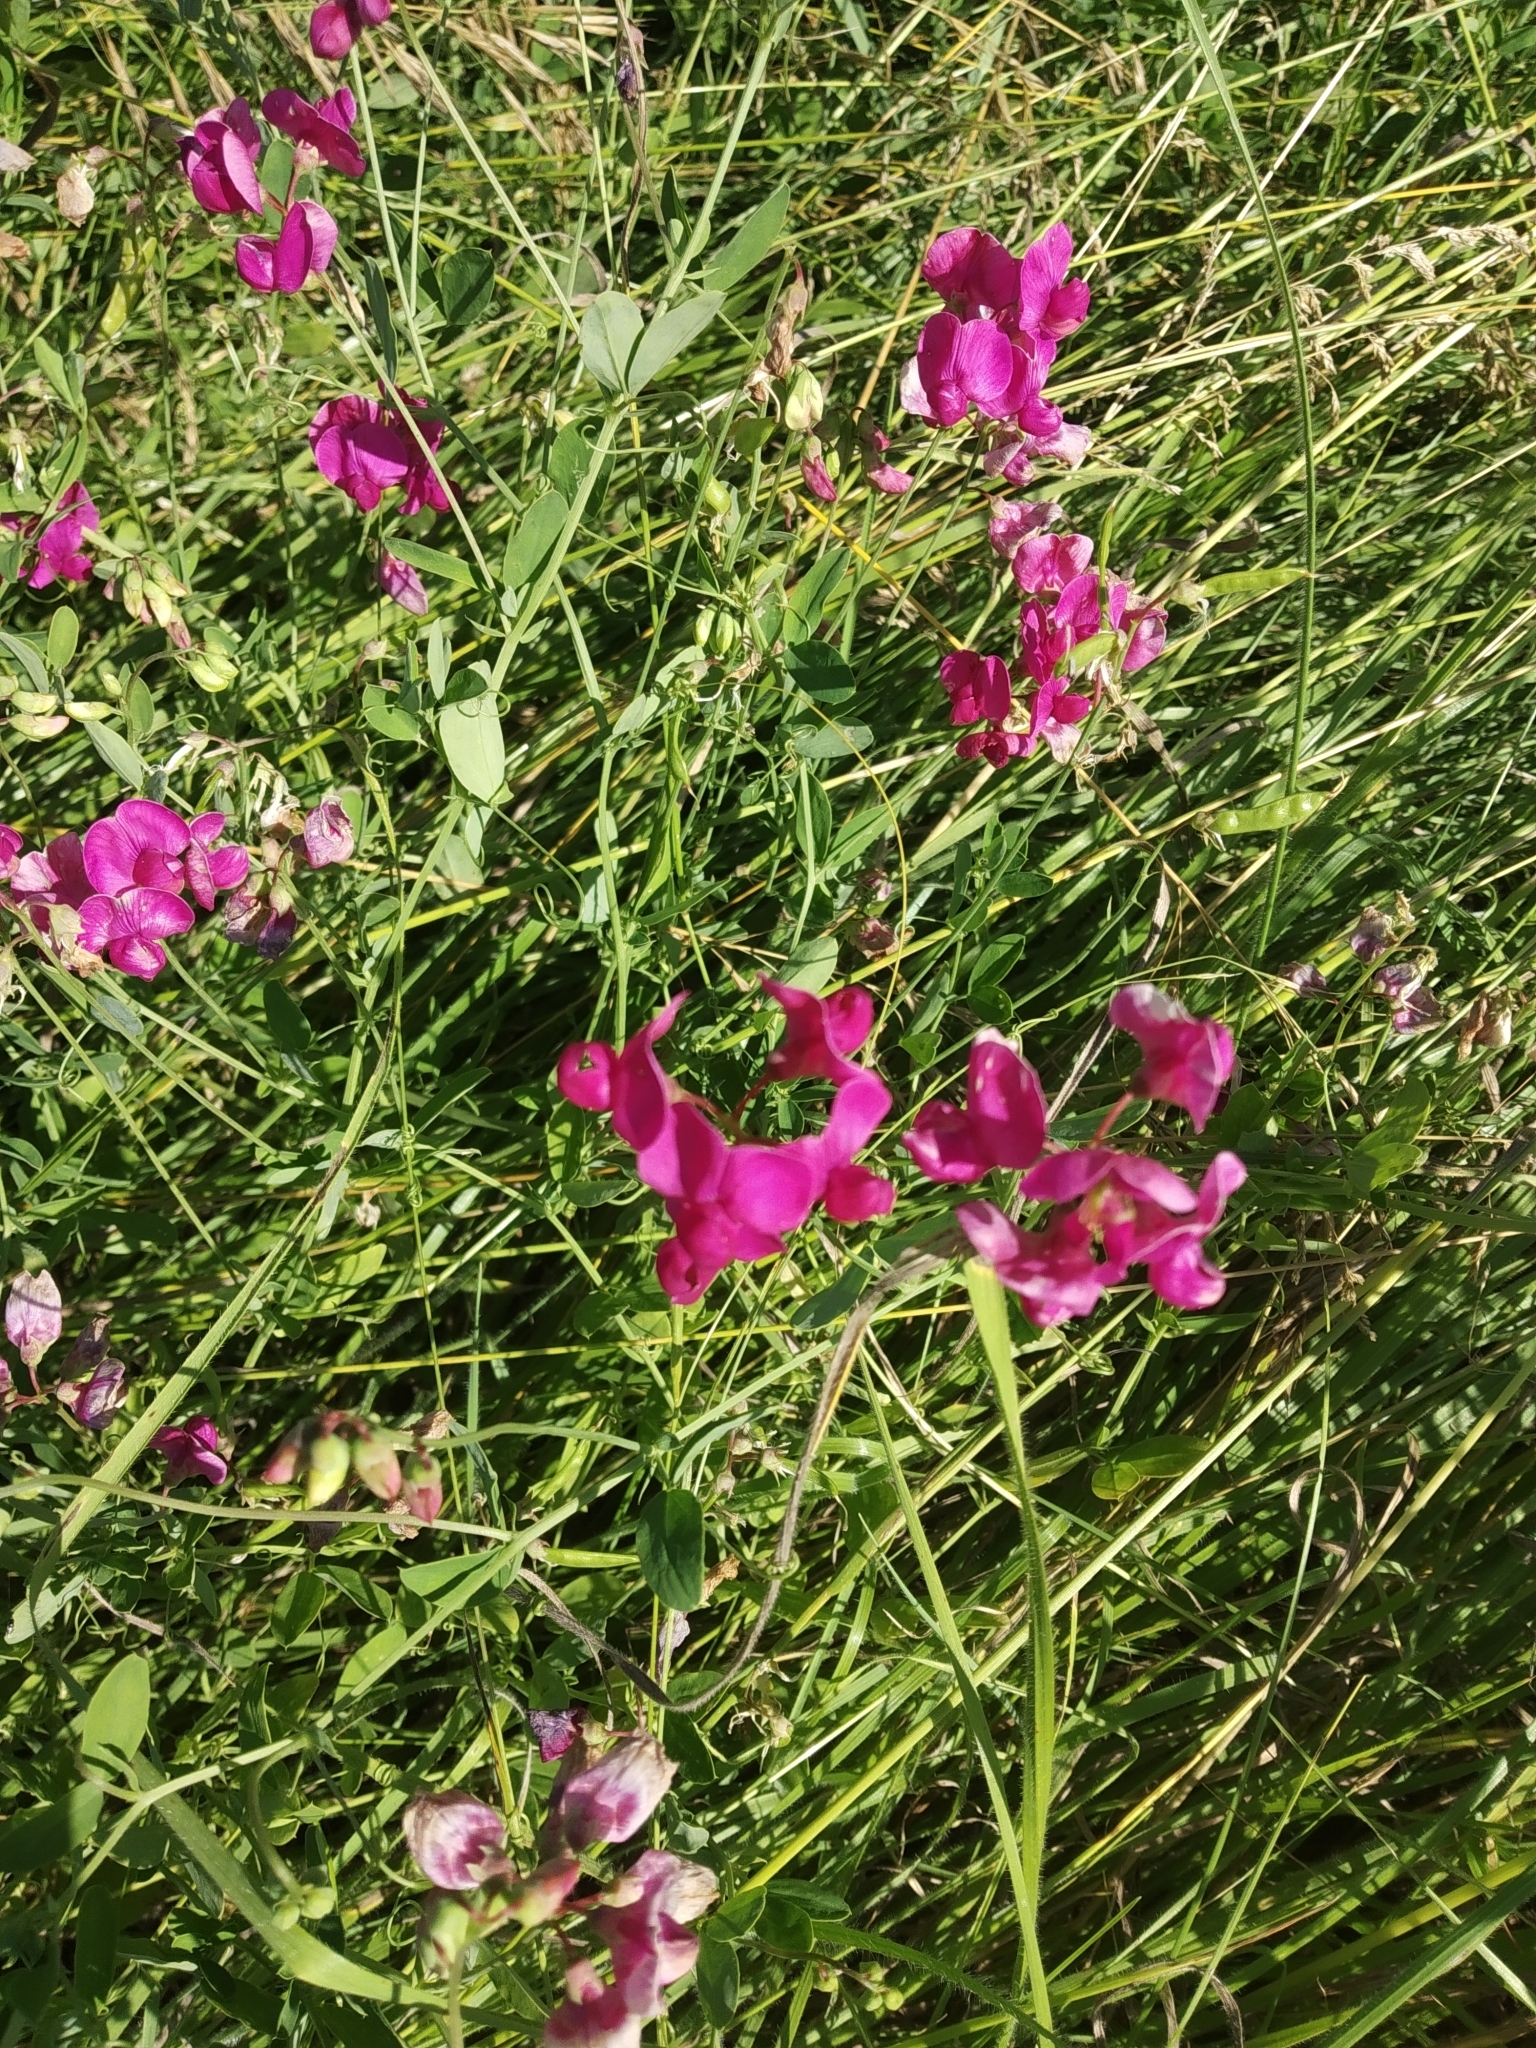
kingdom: Plantae
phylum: Tracheophyta
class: Magnoliopsida
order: Fabales
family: Fabaceae
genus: Lathyrus
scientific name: Lathyrus tuberosus
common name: Tuberous pea
